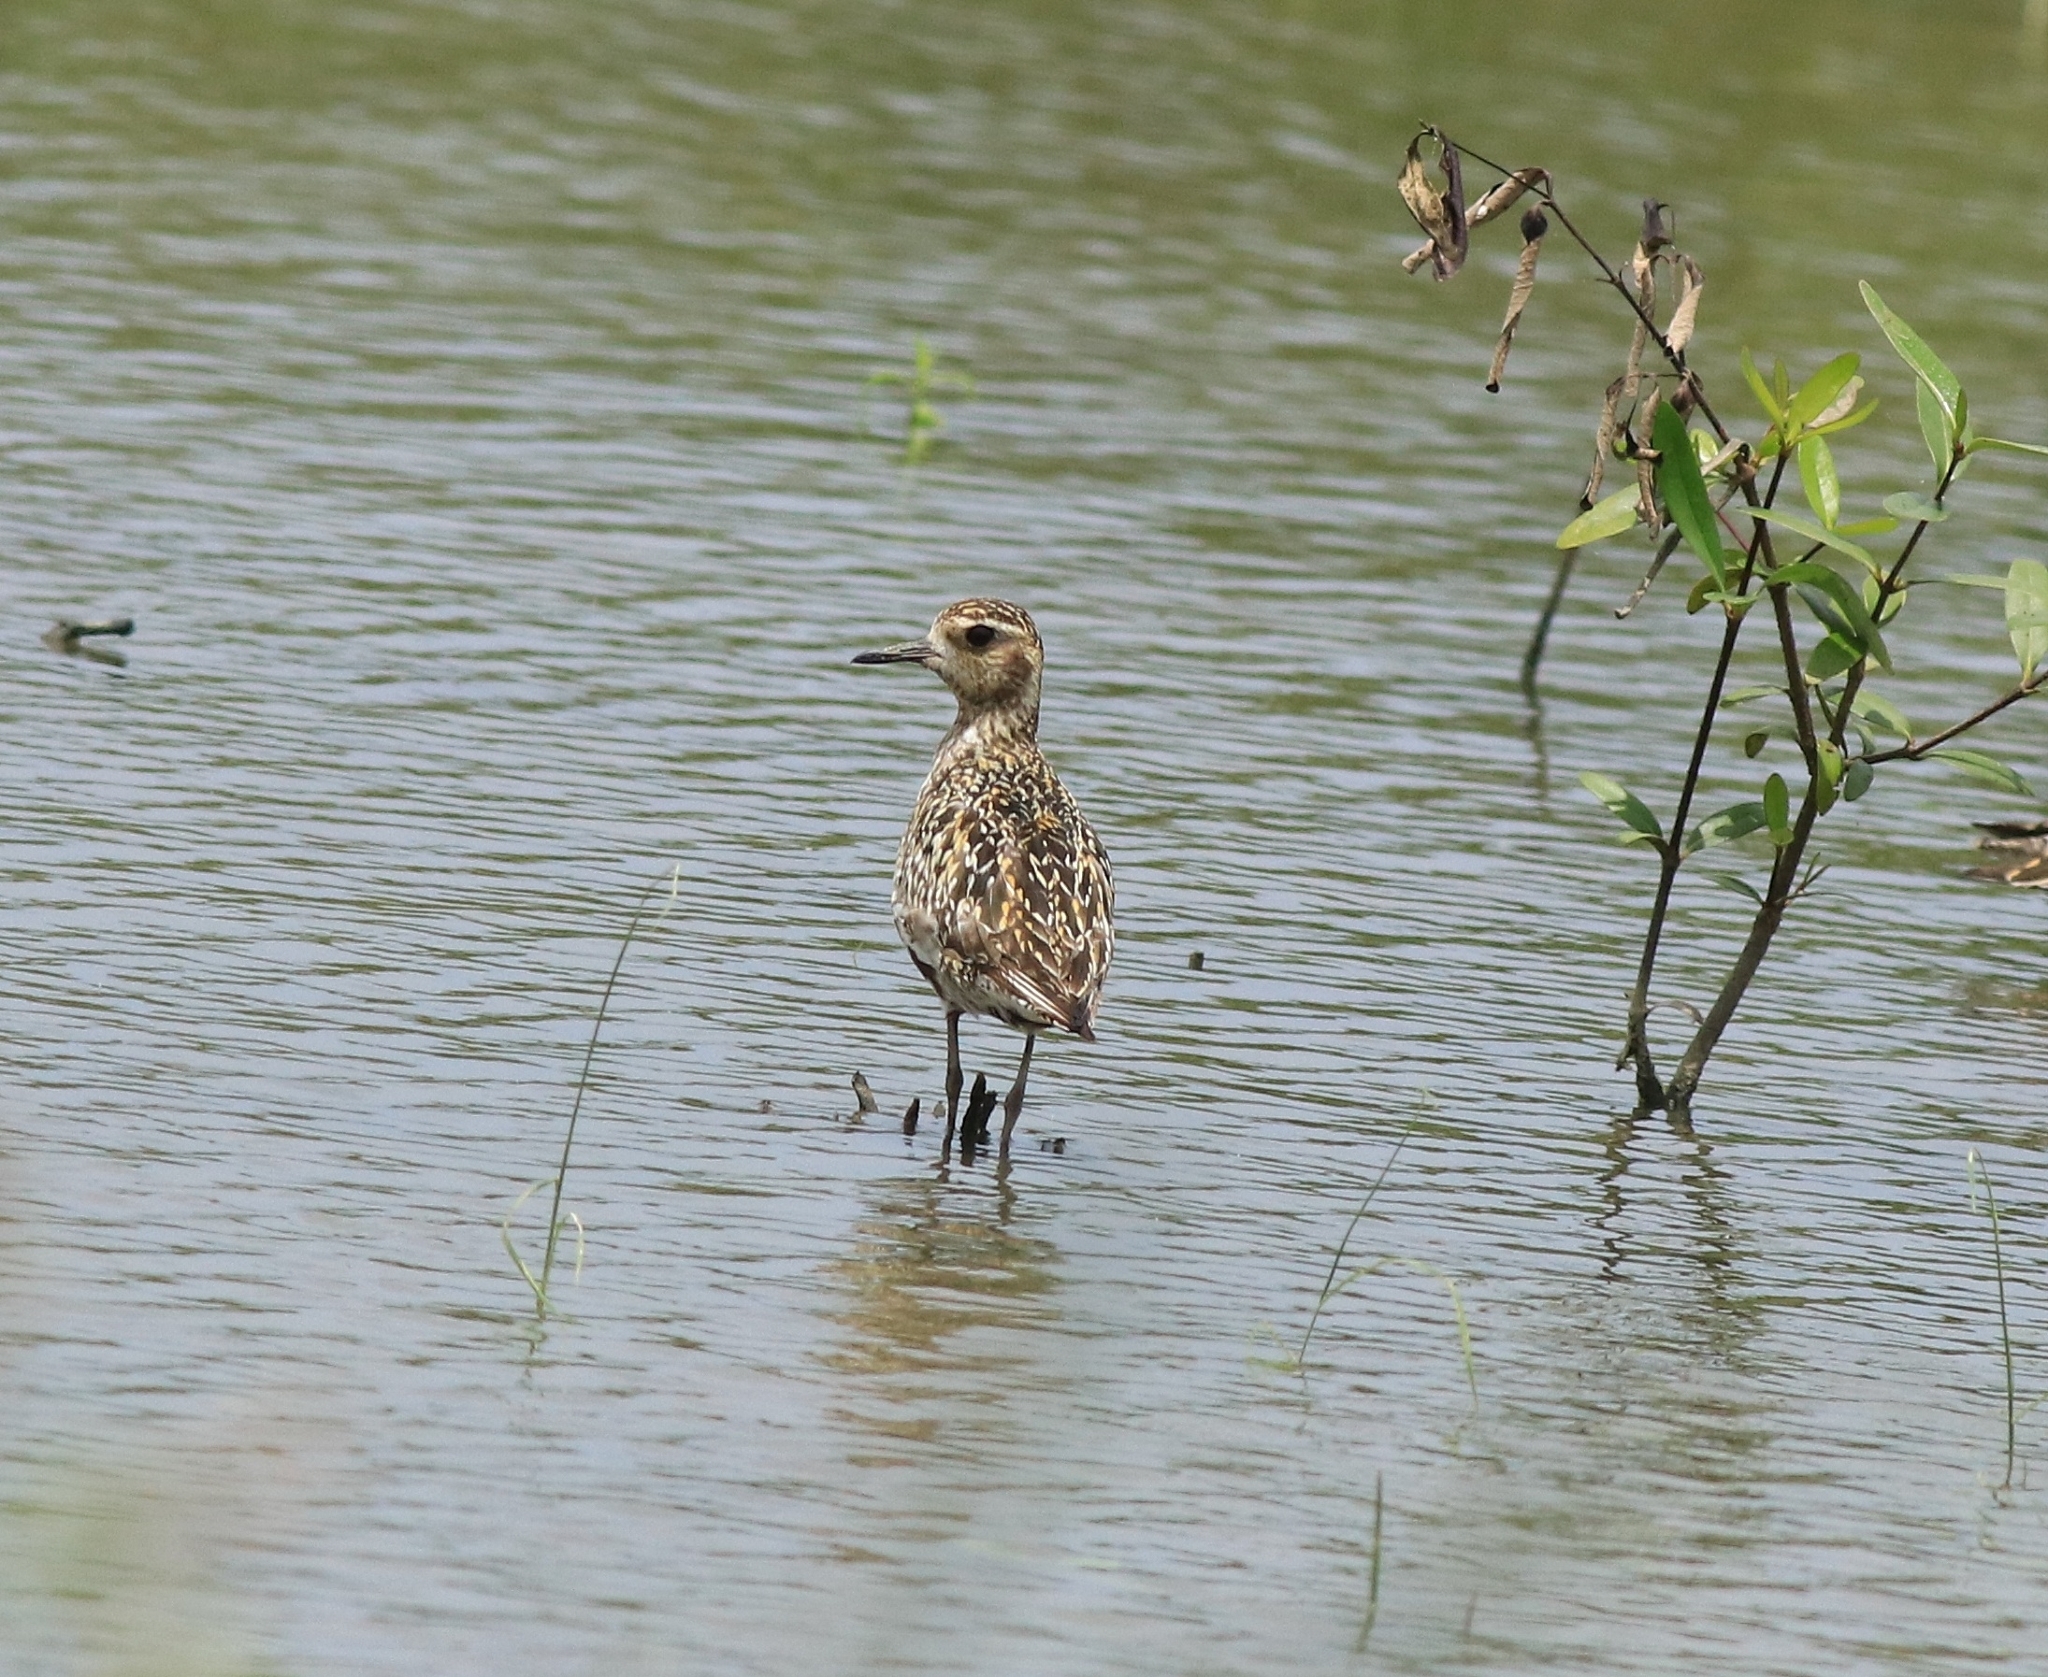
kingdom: Animalia
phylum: Chordata
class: Aves
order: Charadriiformes
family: Charadriidae
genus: Pluvialis
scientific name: Pluvialis fulva
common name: Pacific golden plover
